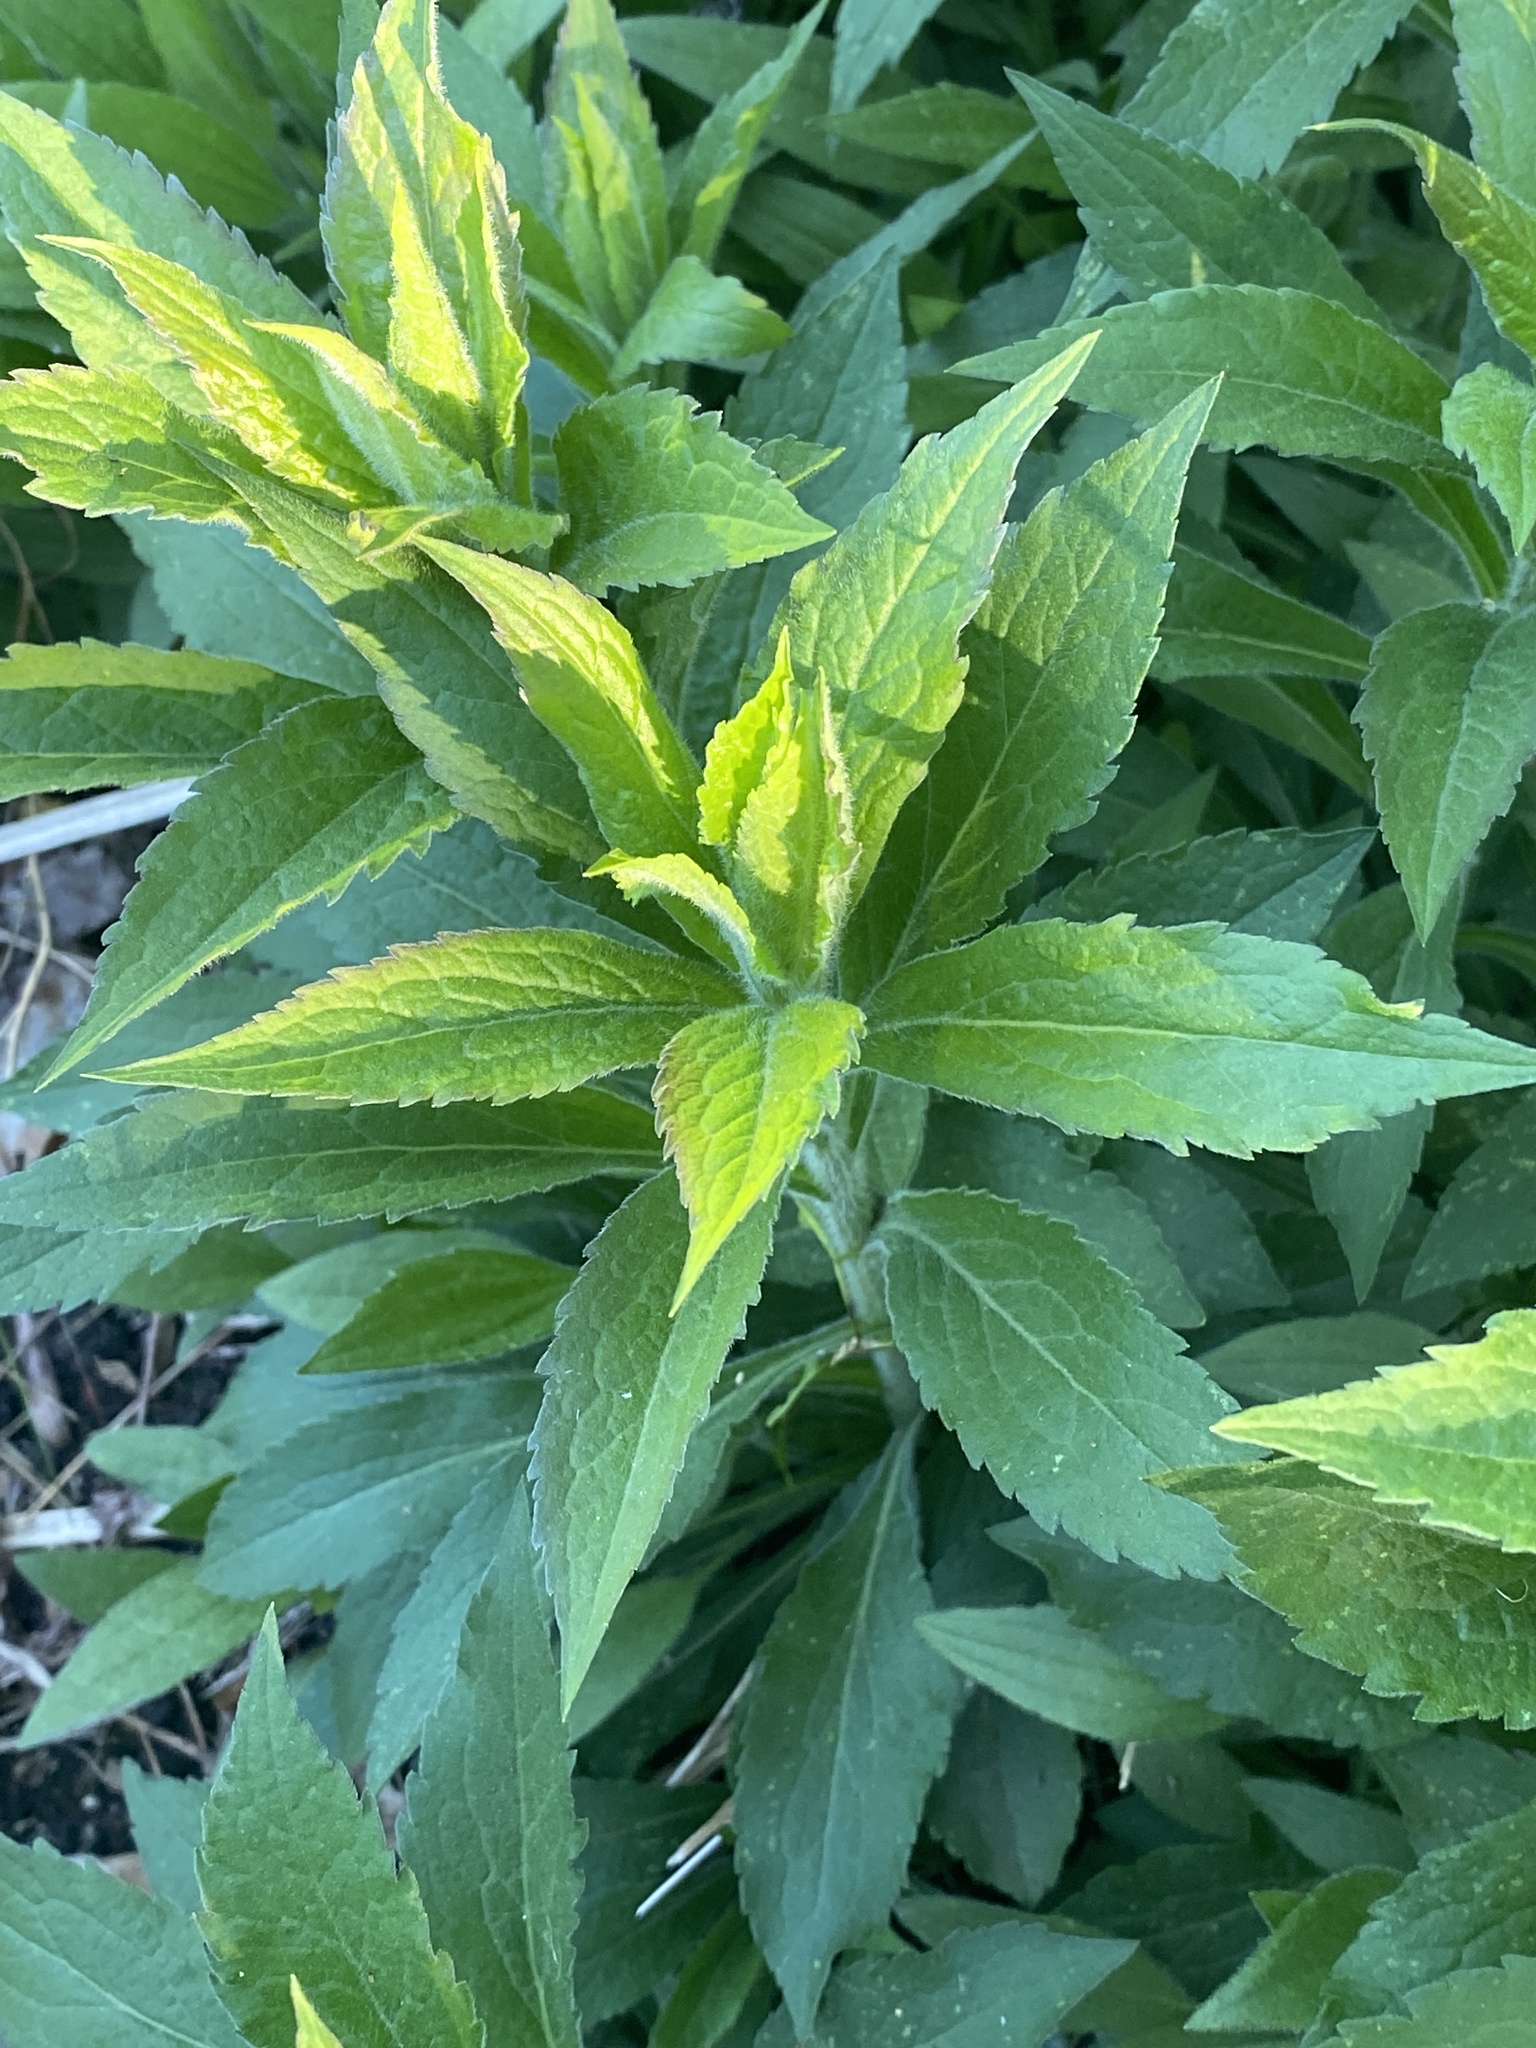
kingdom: Plantae
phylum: Tracheophyta
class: Magnoliopsida
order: Asterales
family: Asteraceae
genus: Solidago
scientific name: Solidago rugosa
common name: Rough-stemmed goldenrod
